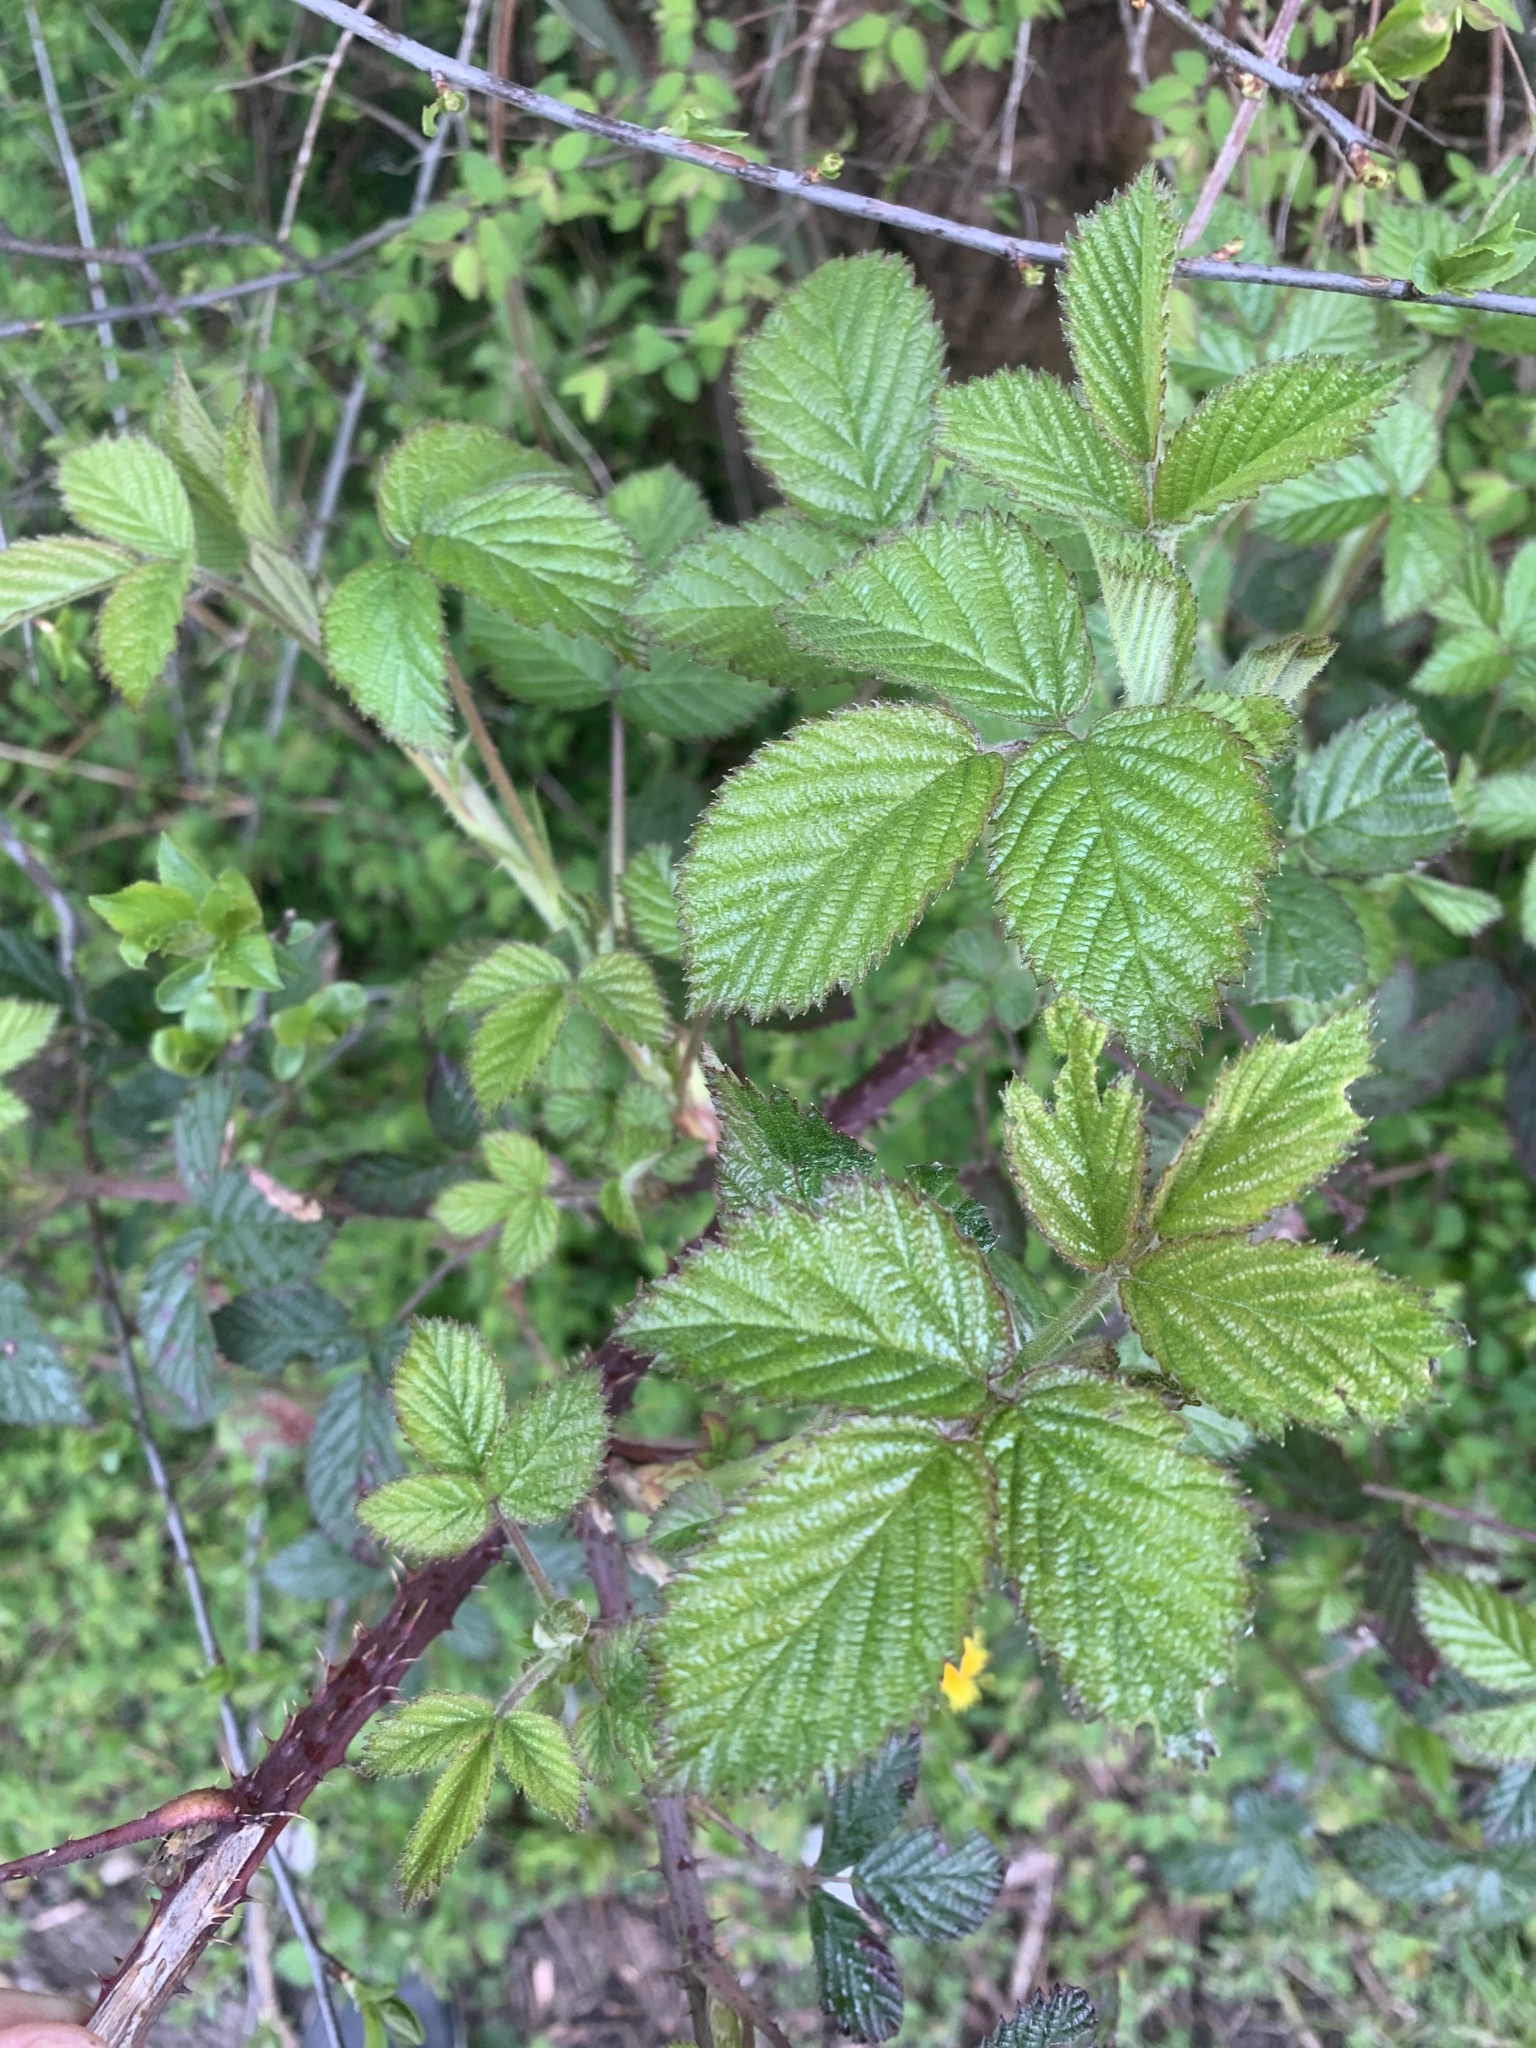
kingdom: Plantae
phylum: Tracheophyta
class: Magnoliopsida
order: Rosales
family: Rosaceae
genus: Rubus
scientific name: Rubus fruticosus
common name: Blackberry, bramble
